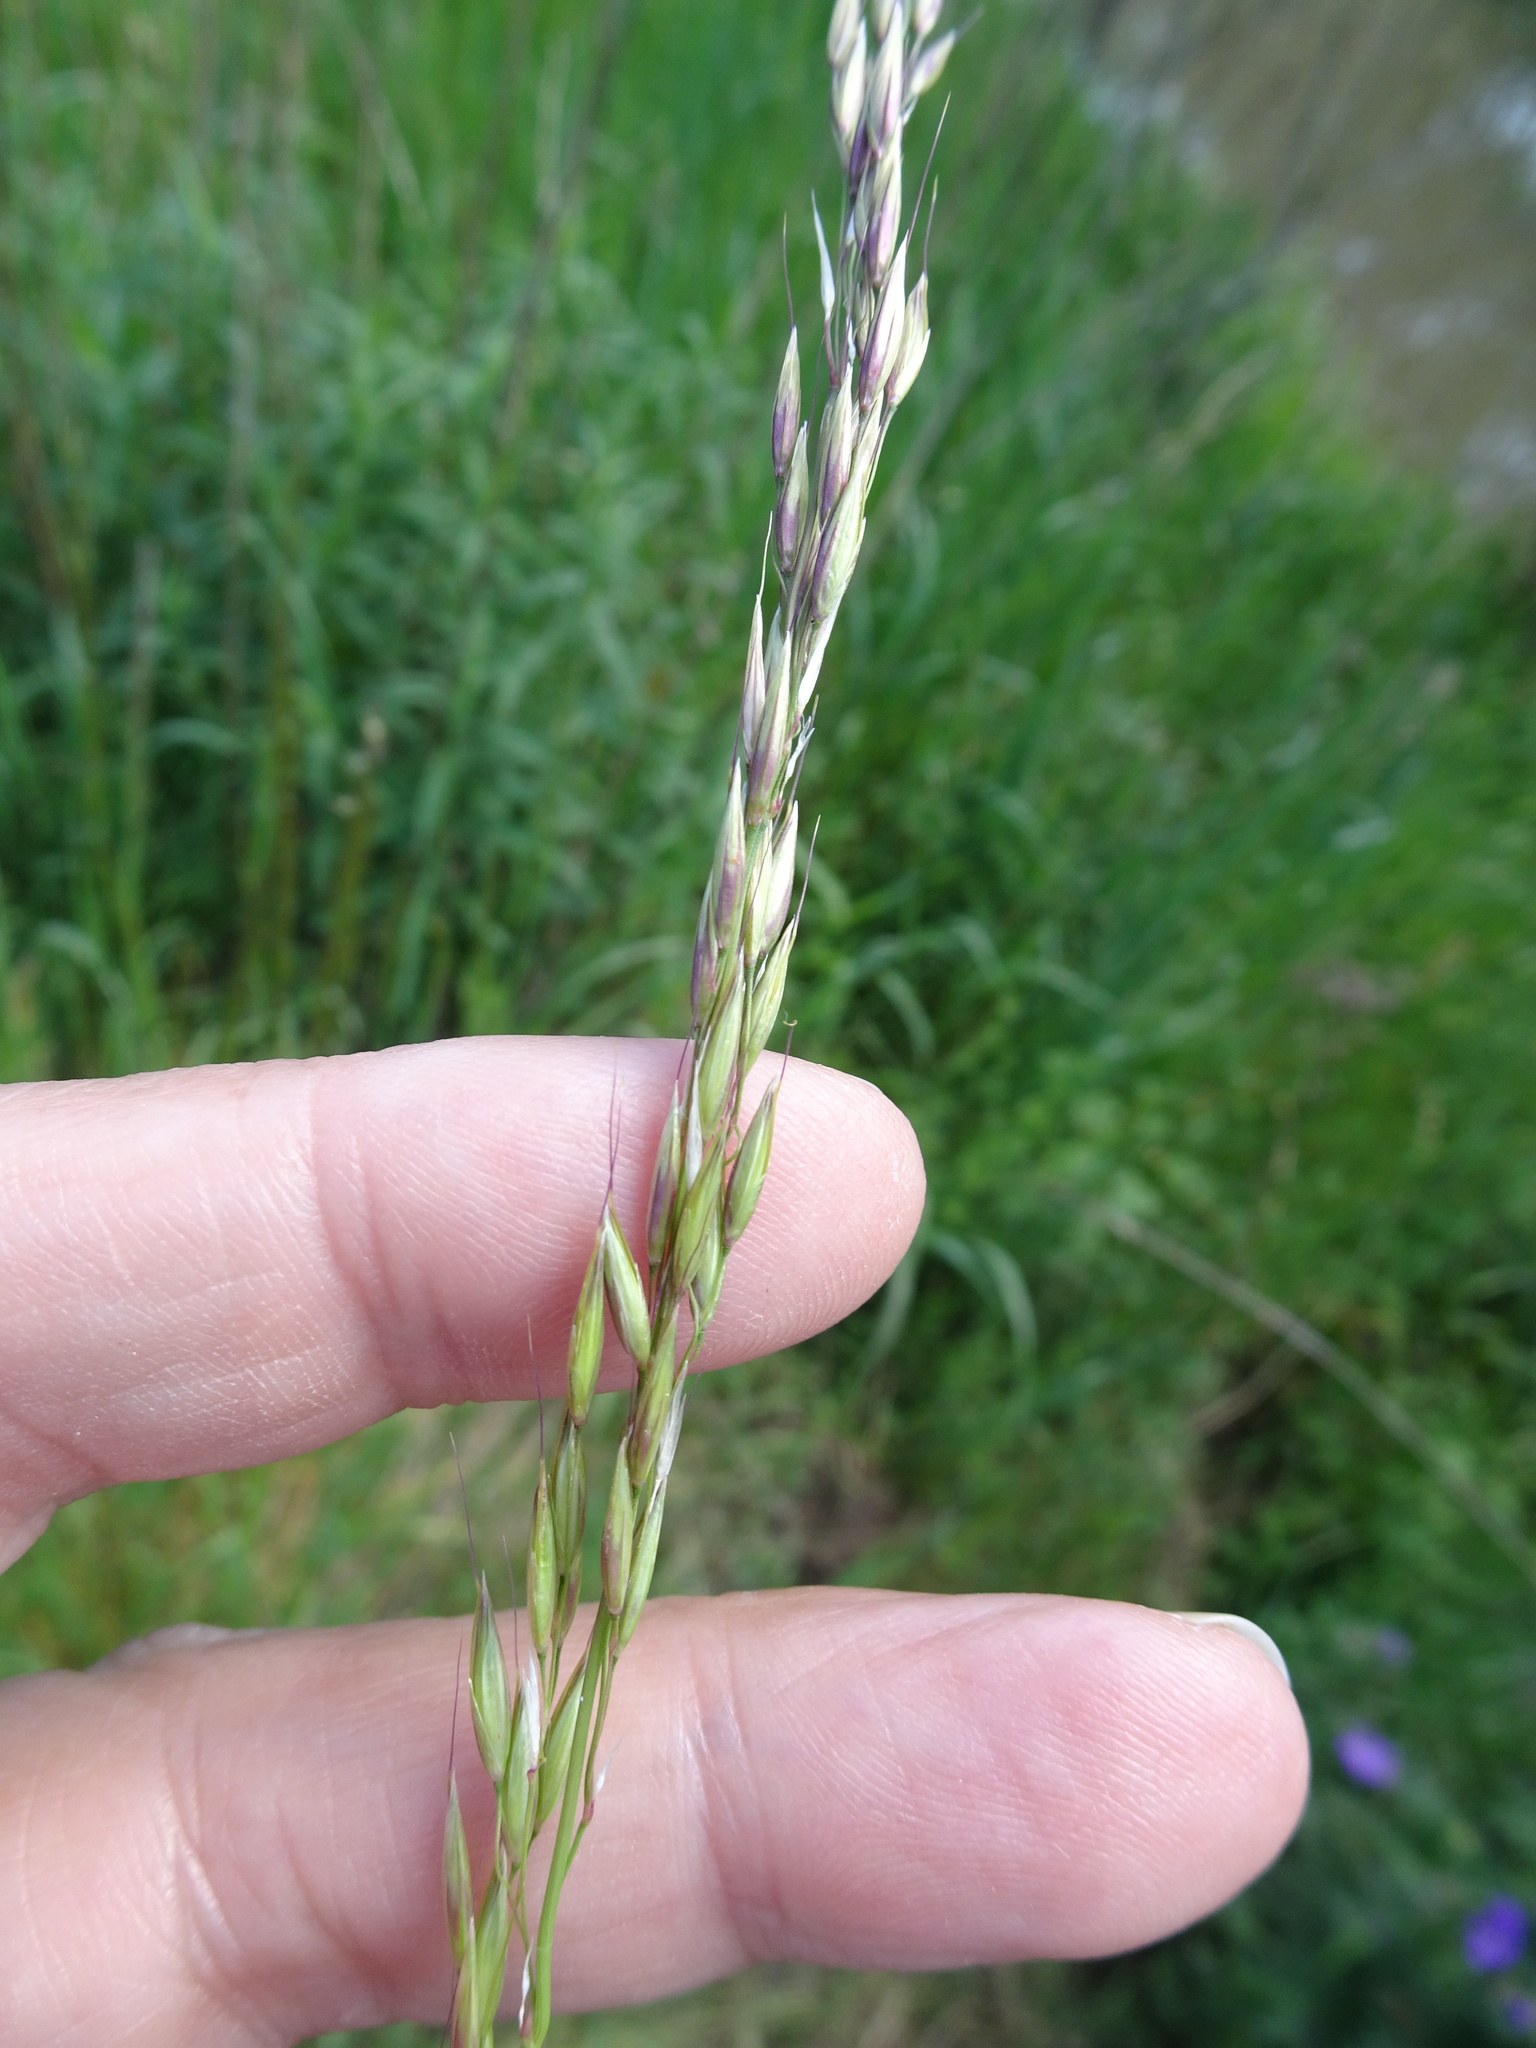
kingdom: Plantae
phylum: Tracheophyta
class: Liliopsida
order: Poales
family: Poaceae
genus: Arrhenatherum
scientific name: Arrhenatherum elatius
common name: Tall oatgrass
